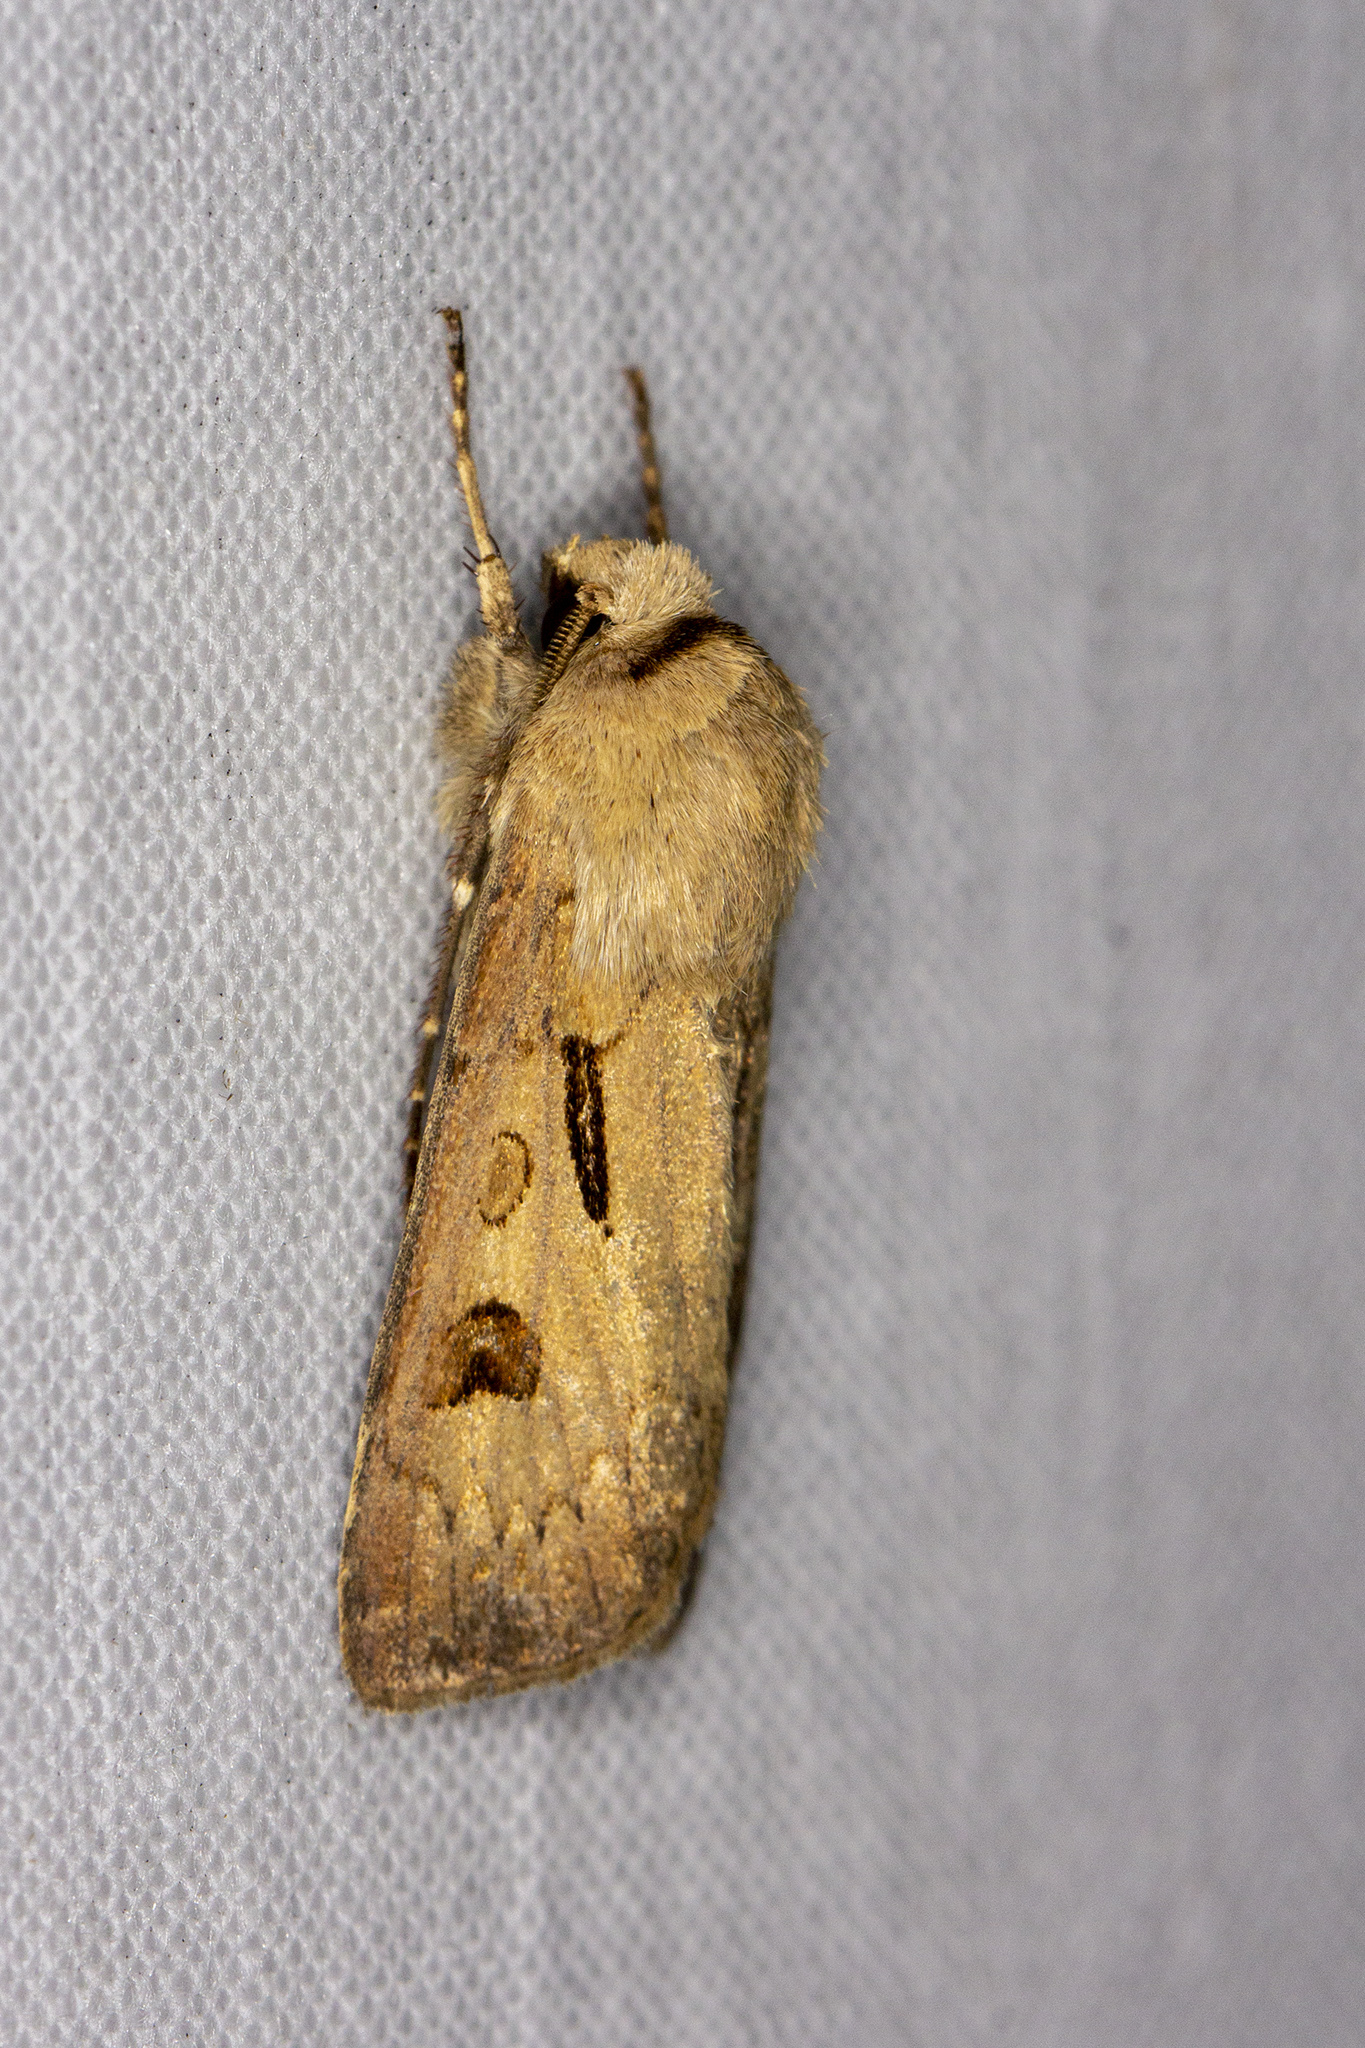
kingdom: Animalia
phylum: Arthropoda
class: Insecta
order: Lepidoptera
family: Noctuidae
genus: Agrotis
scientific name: Agrotis exclamationis
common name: Heart and dart
